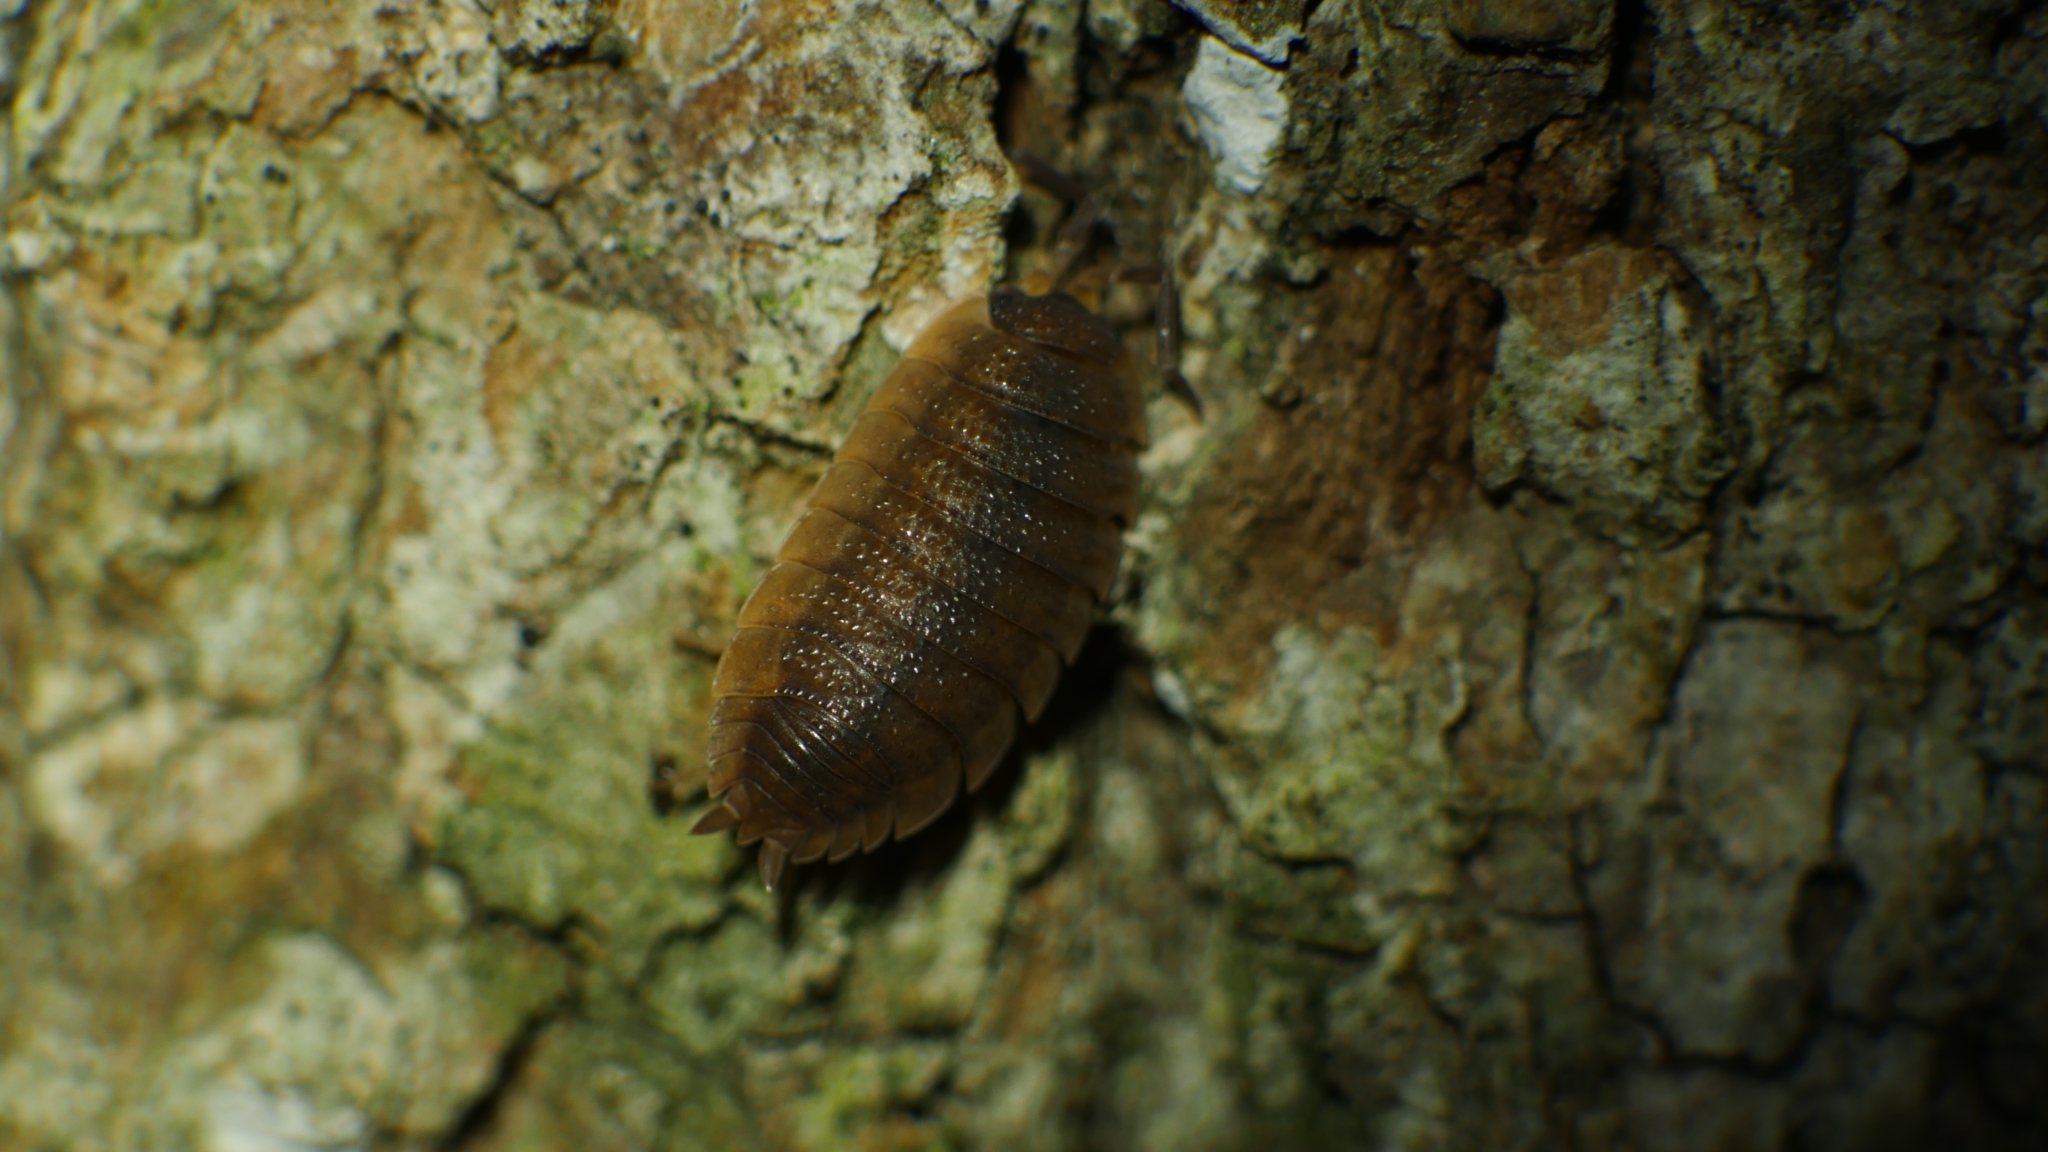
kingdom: Animalia
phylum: Arthropoda
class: Malacostraca
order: Isopoda
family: Porcellionidae
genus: Porcellio
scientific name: Porcellio scaber
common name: Common rough woodlouse
